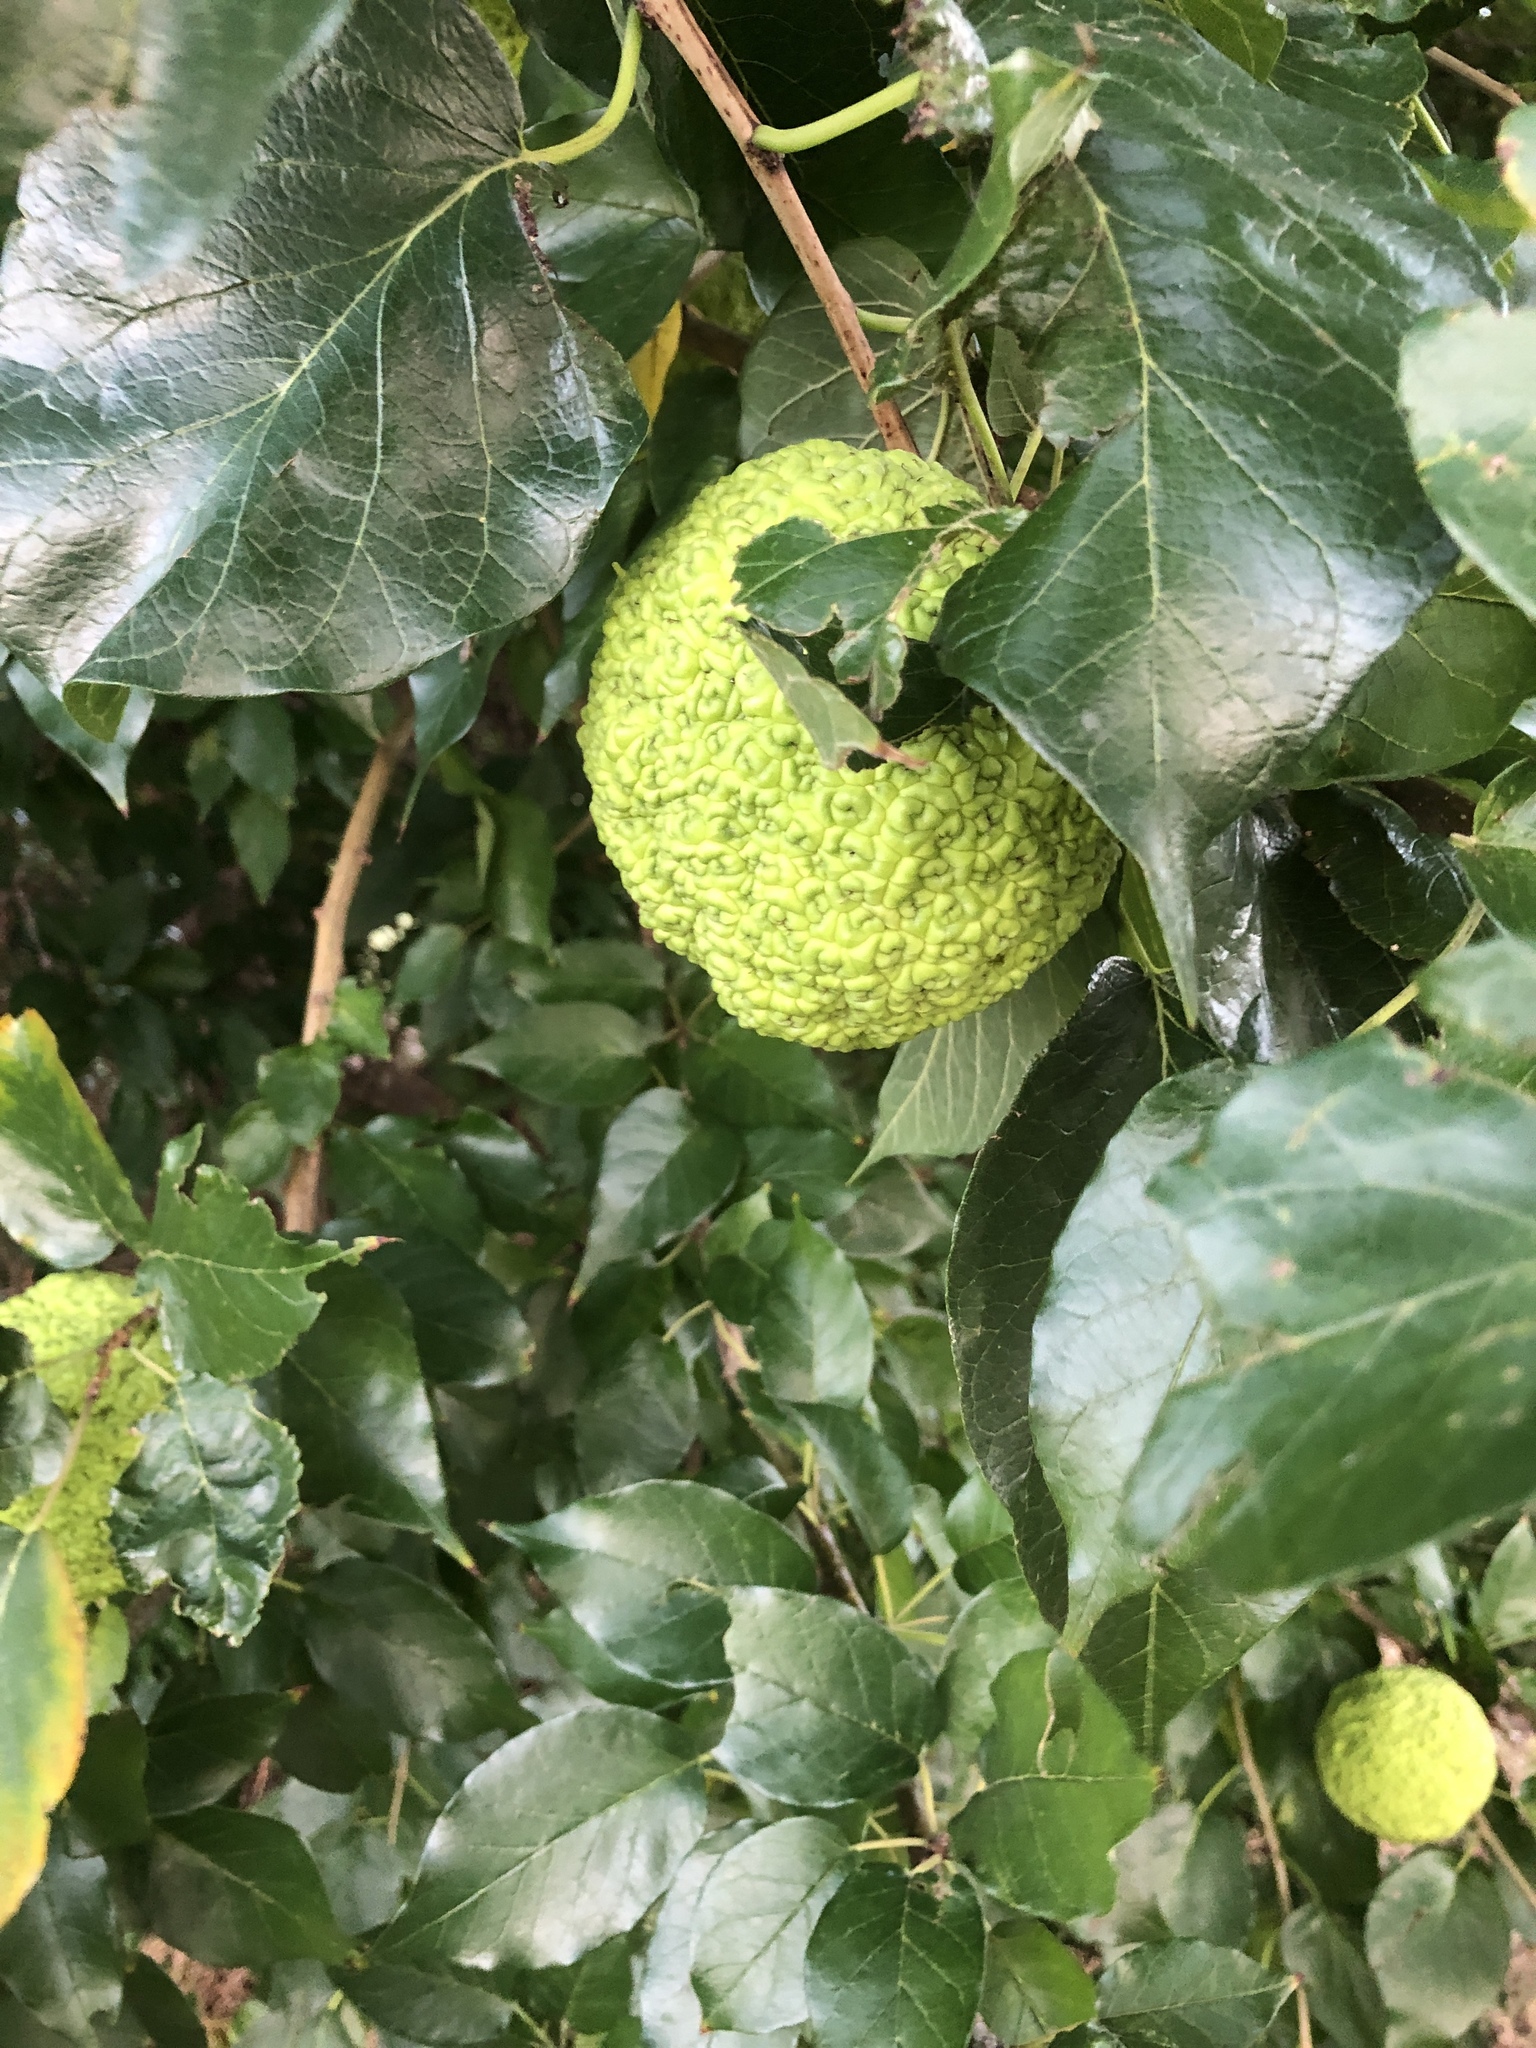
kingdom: Plantae
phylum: Tracheophyta
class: Magnoliopsida
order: Rosales
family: Moraceae
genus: Maclura
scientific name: Maclura pomifera
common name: Osage-orange
